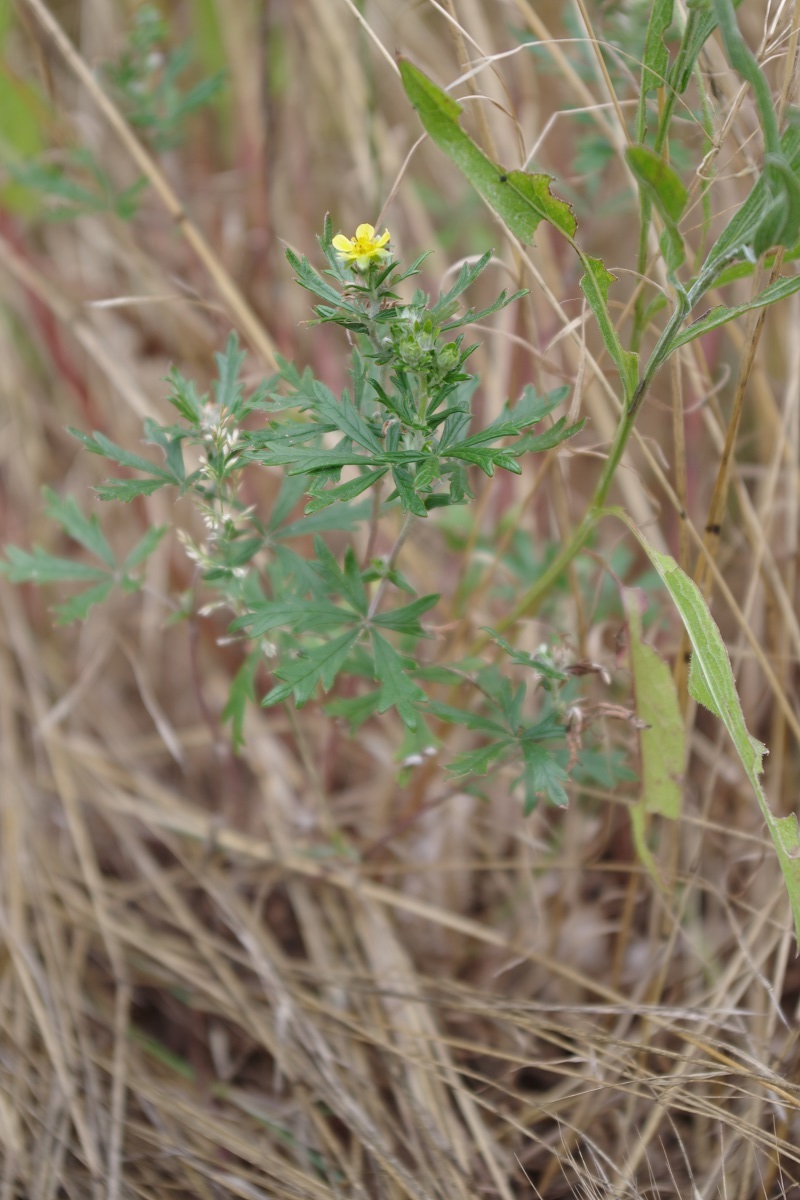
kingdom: Plantae
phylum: Tracheophyta
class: Magnoliopsida
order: Rosales
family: Rosaceae
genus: Potentilla
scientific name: Potentilla argentea
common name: Hoary cinquefoil
